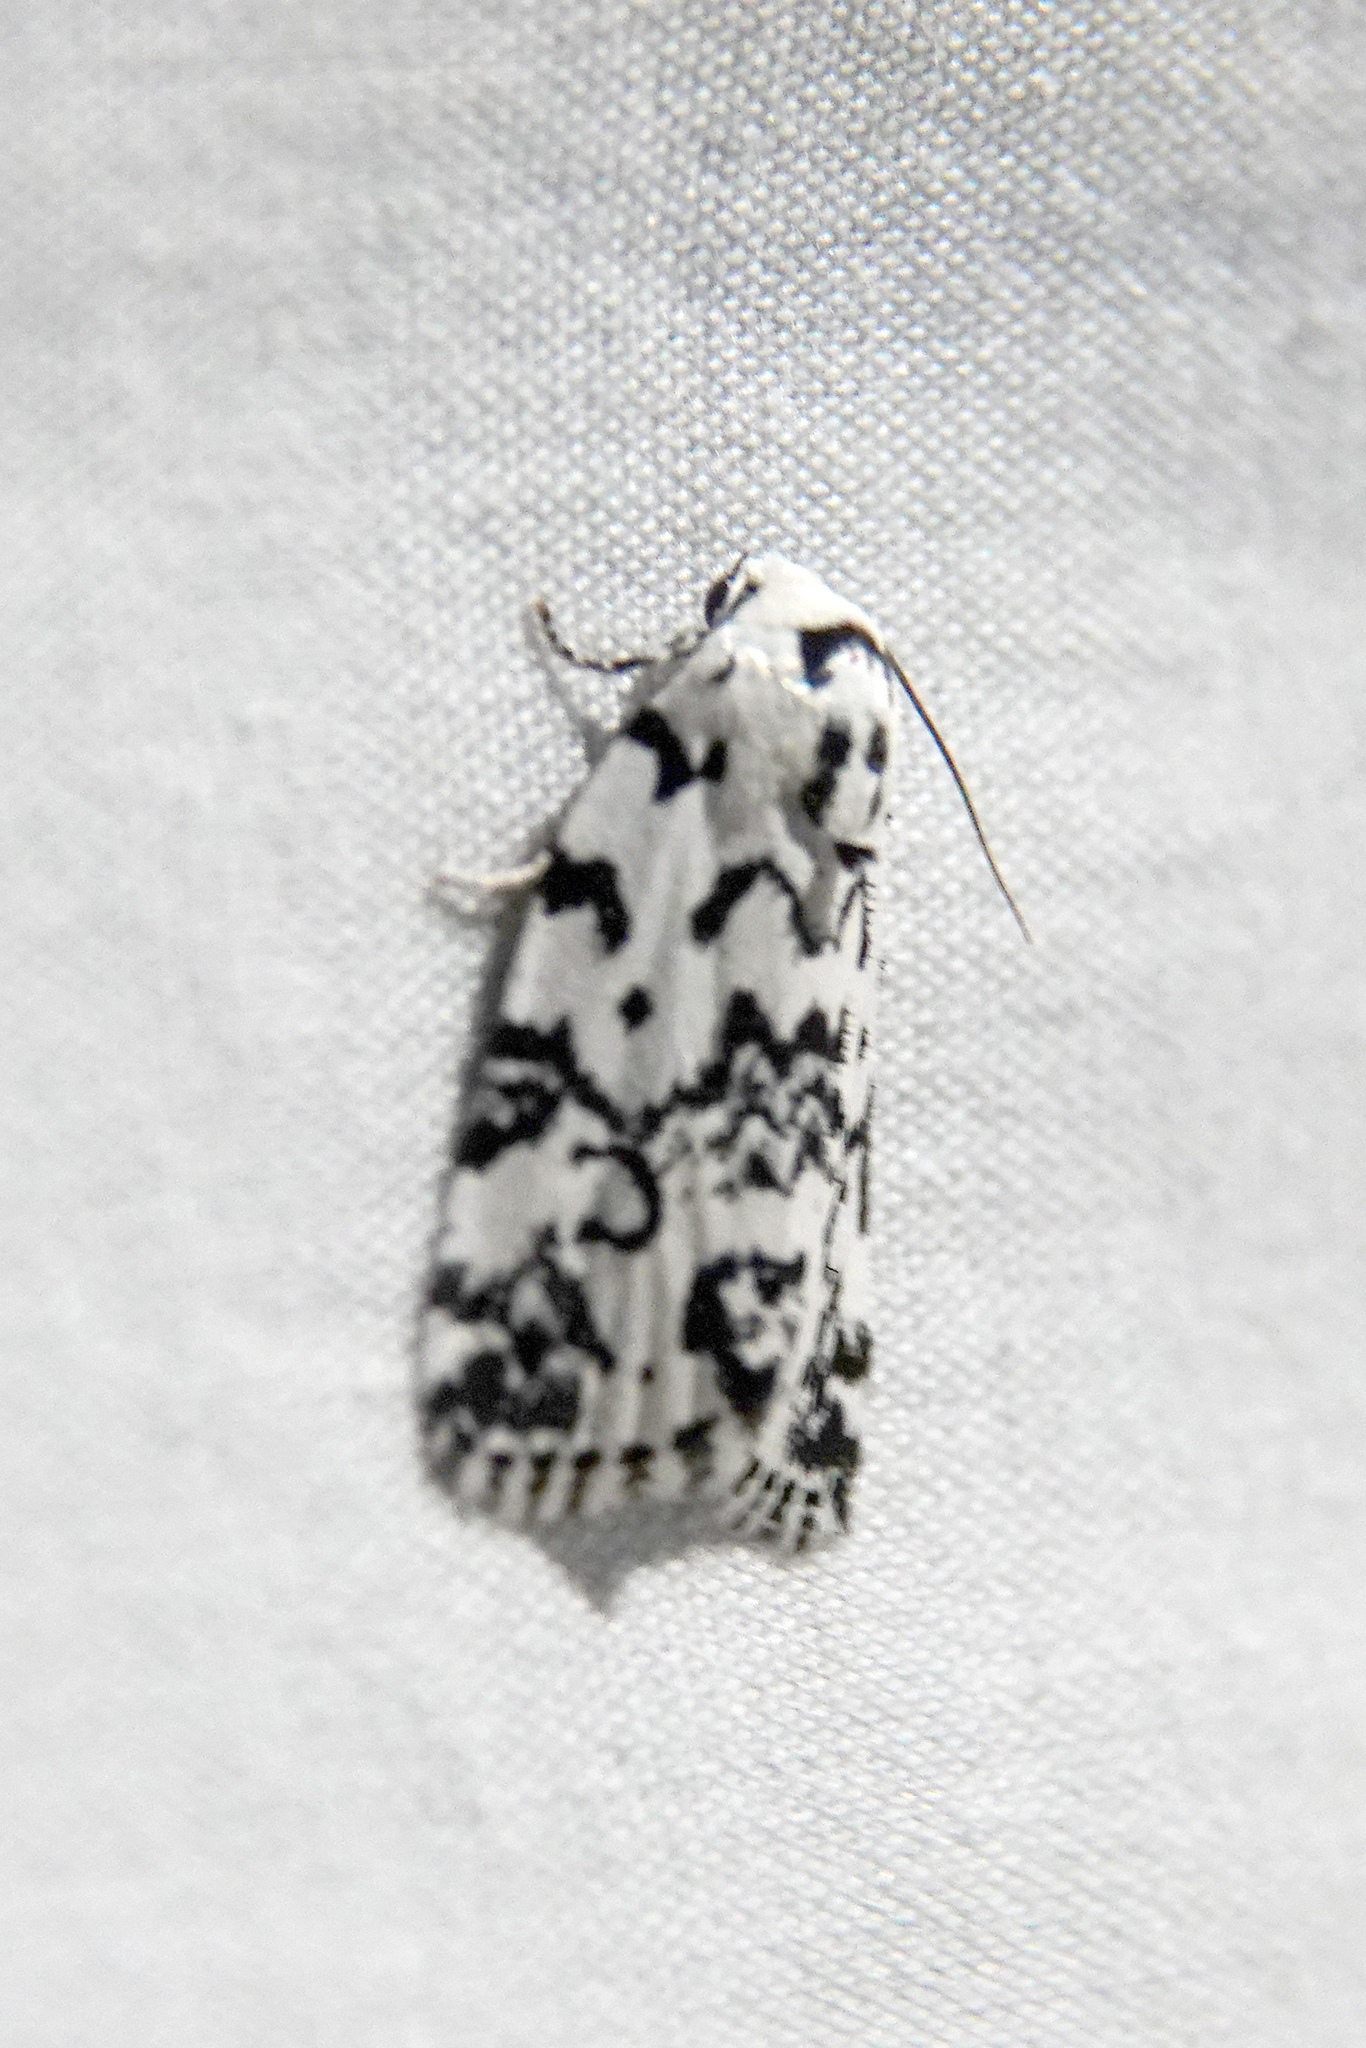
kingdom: Animalia
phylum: Arthropoda
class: Insecta
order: Lepidoptera
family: Noctuidae
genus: Polygrammate
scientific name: Polygrammate hebraeicum
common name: Hebrew moth
